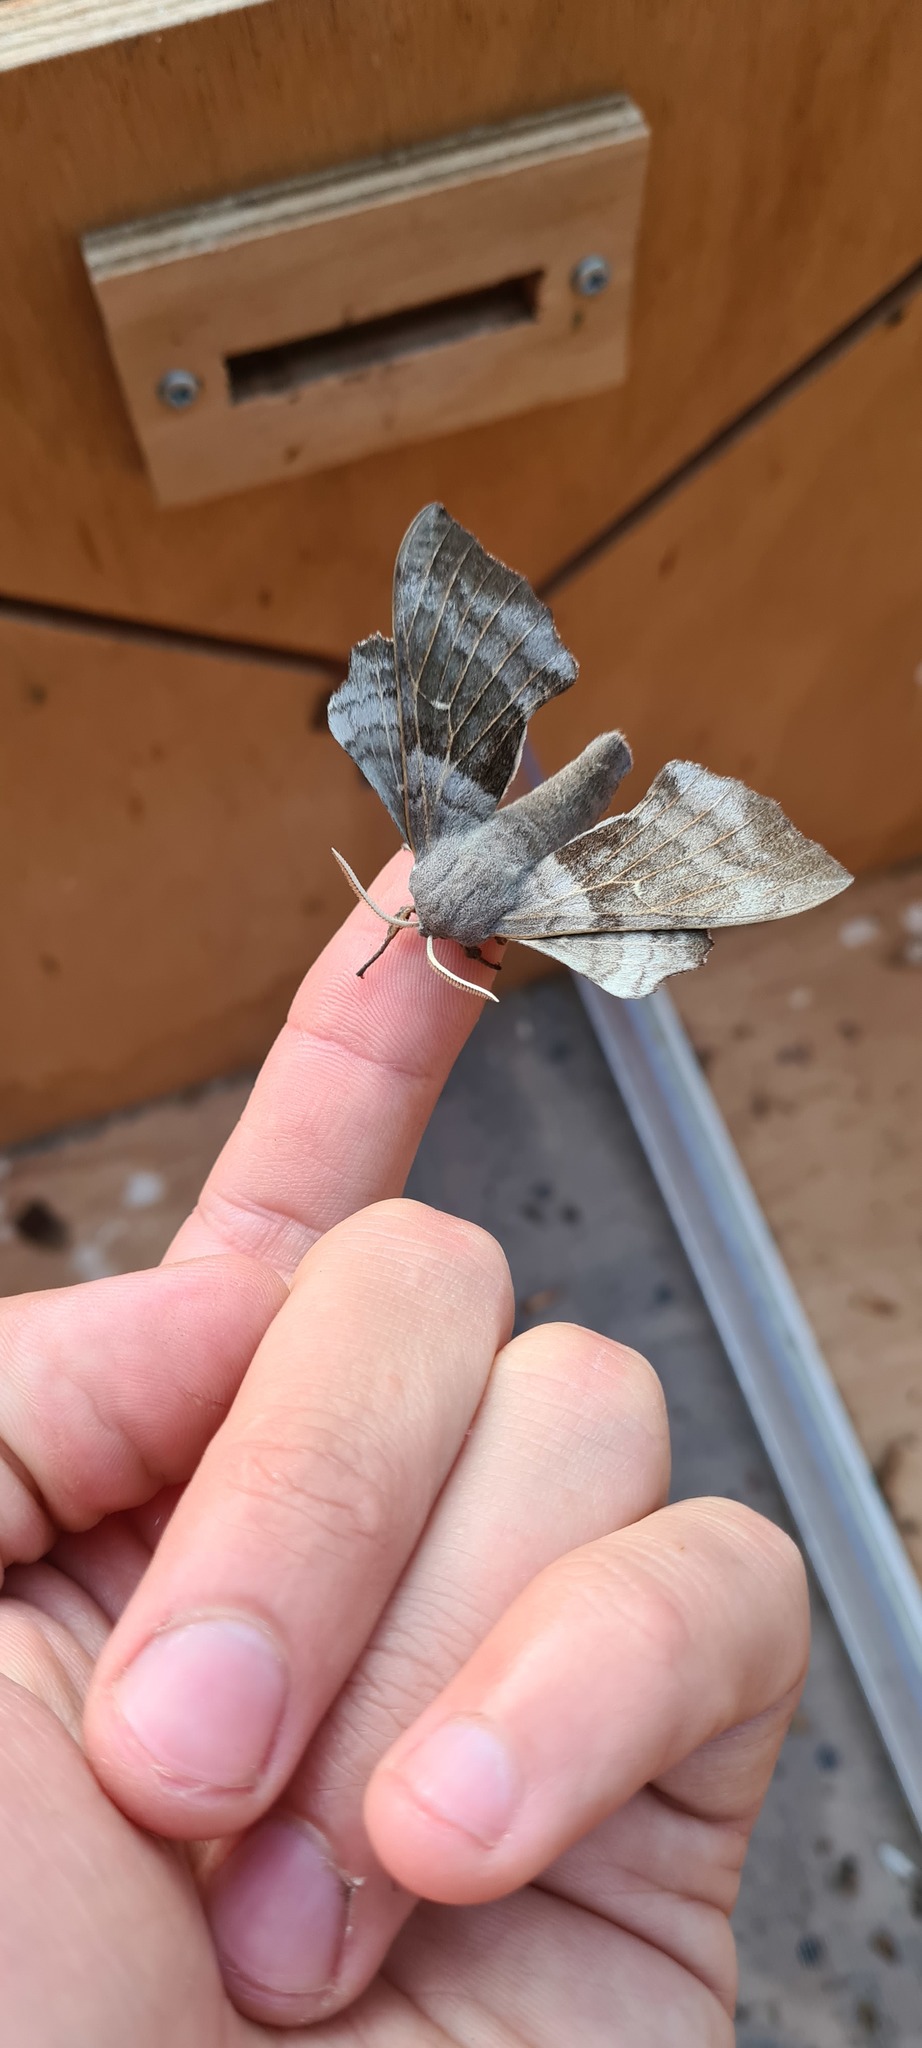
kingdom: Animalia
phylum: Arthropoda
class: Insecta
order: Lepidoptera
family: Sphingidae
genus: Laothoe
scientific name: Laothoe populi
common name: Poplar hawk-moth
